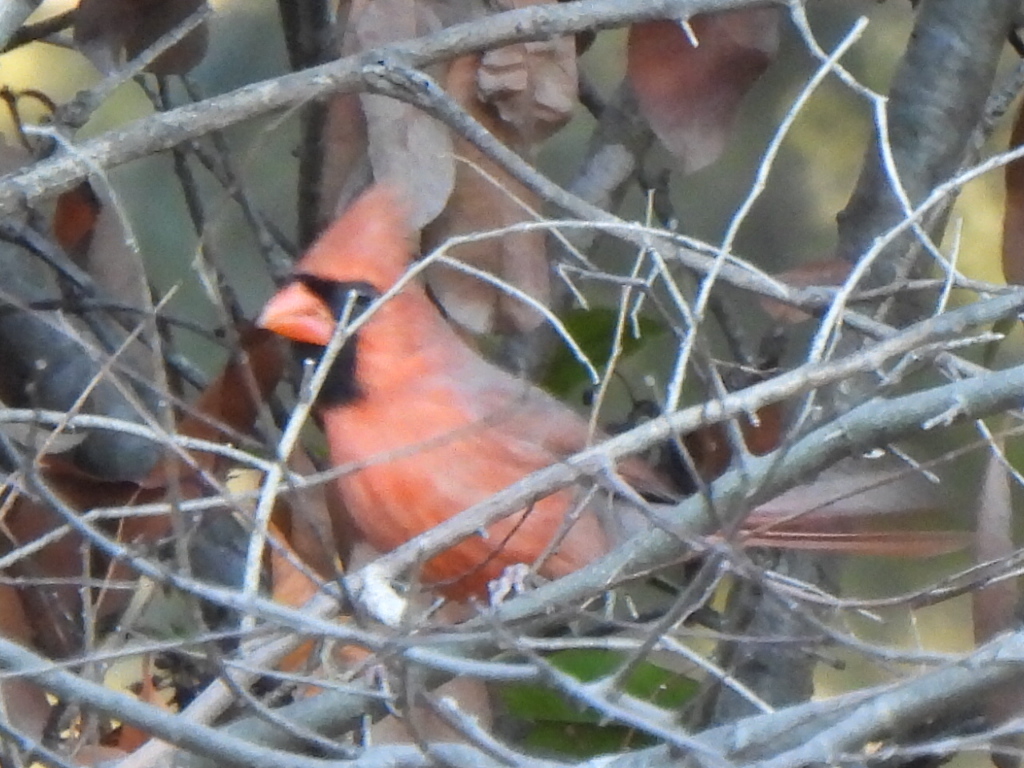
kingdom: Animalia
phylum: Chordata
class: Aves
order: Passeriformes
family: Cardinalidae
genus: Cardinalis
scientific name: Cardinalis cardinalis
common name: Northern cardinal
